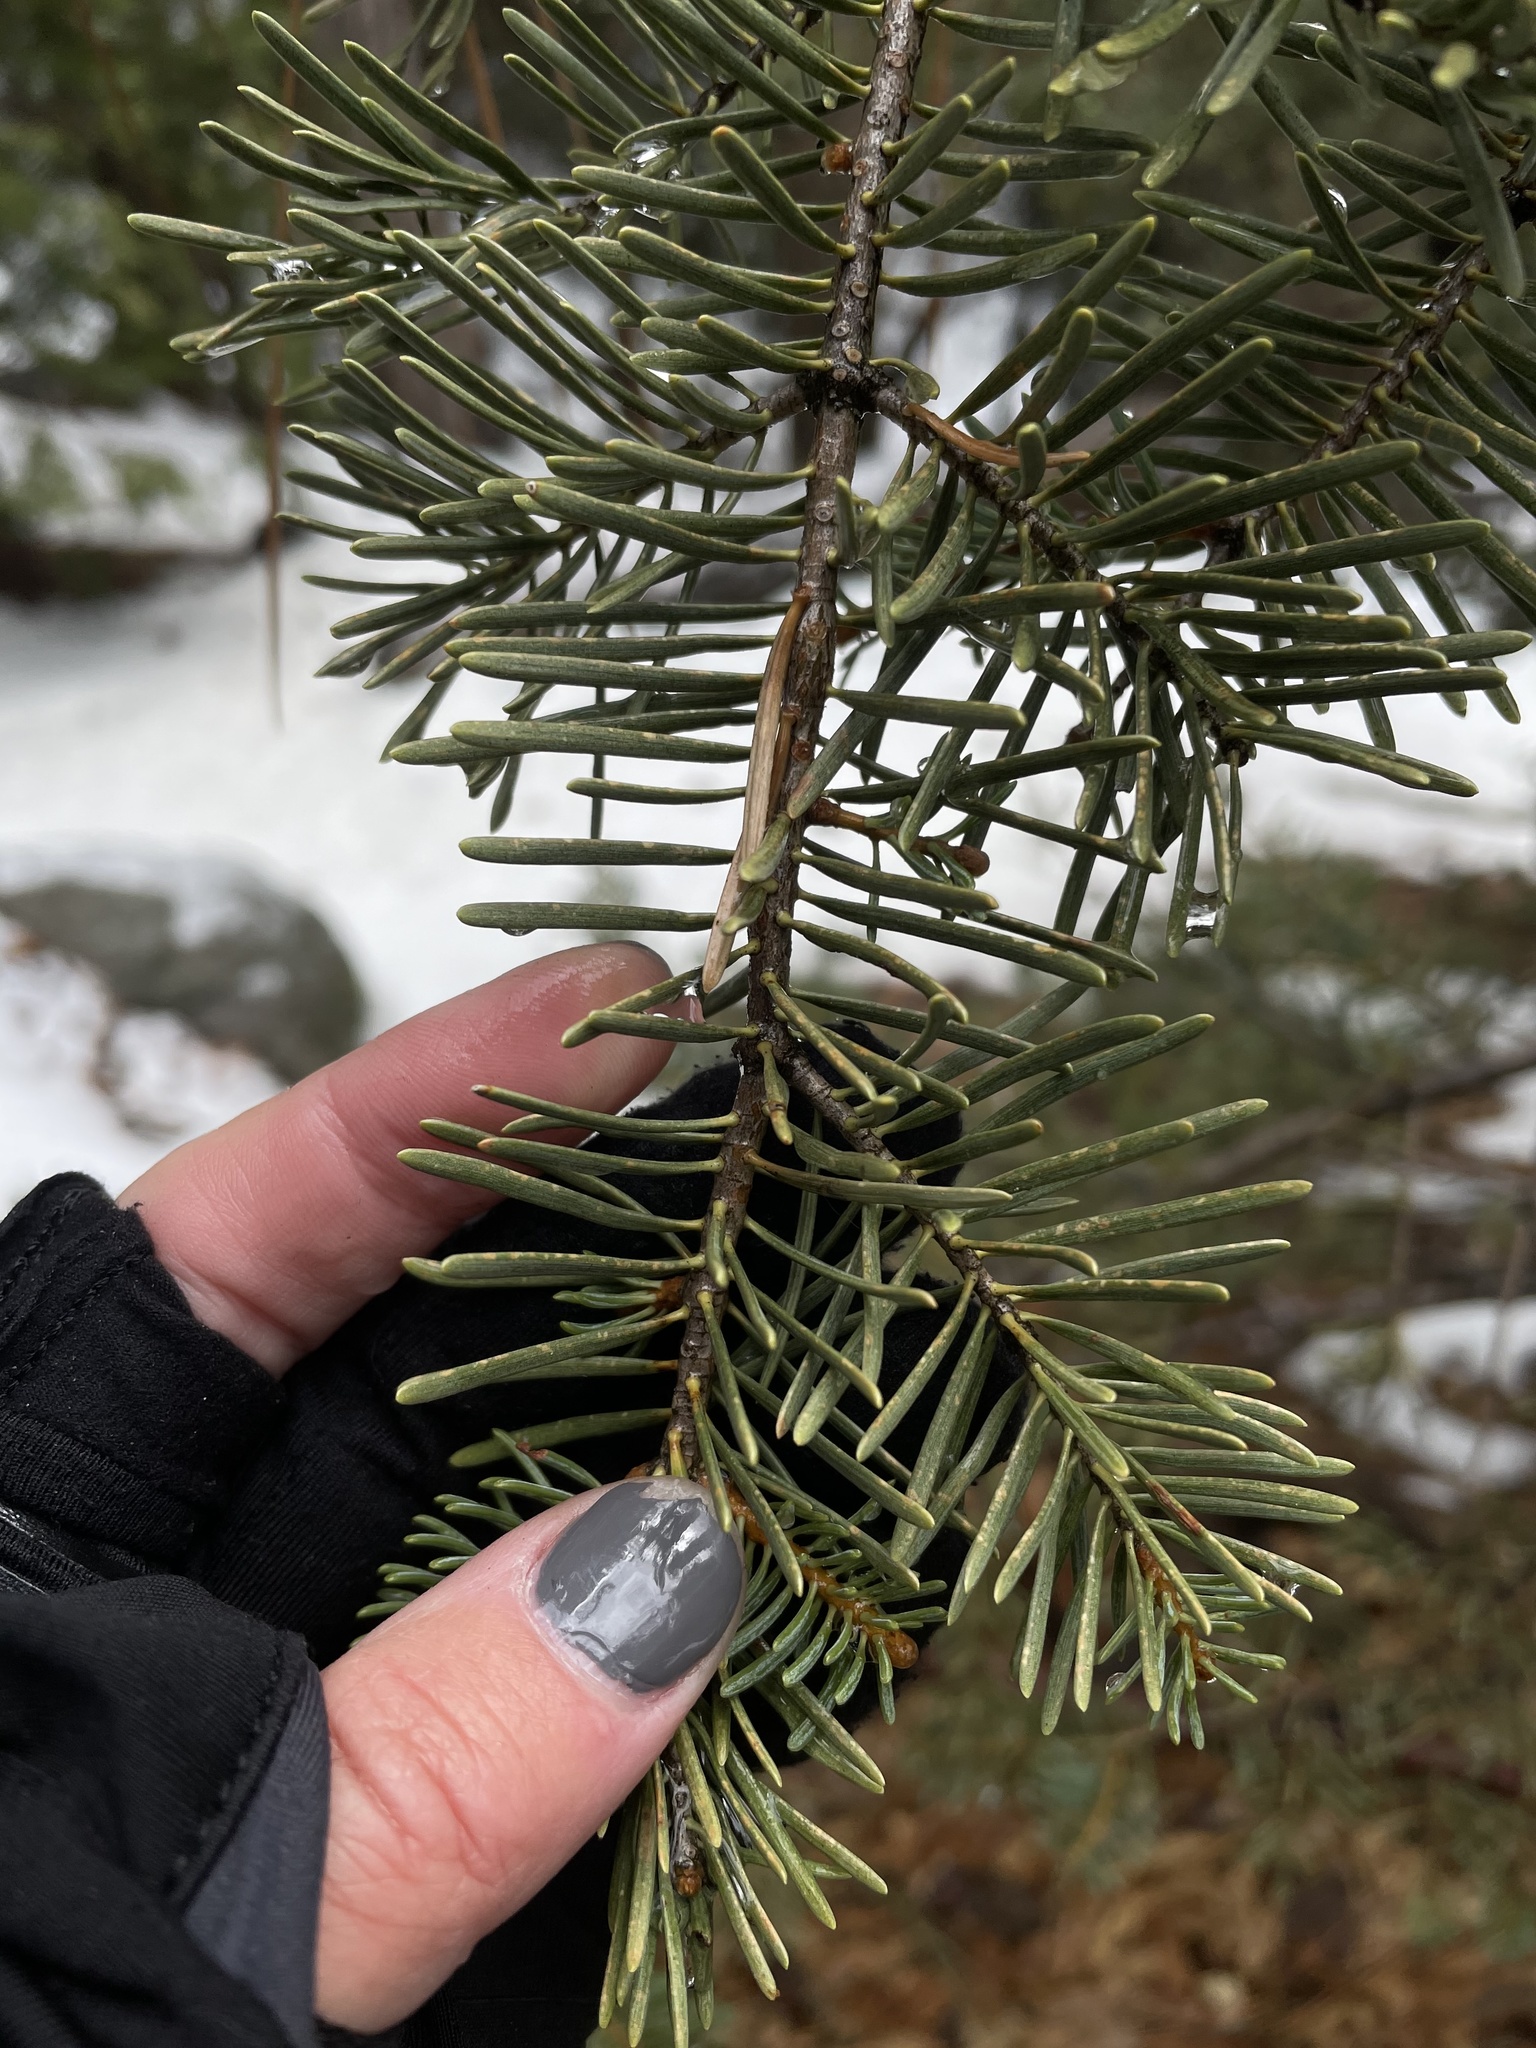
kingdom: Plantae
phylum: Tracheophyta
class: Pinopsida
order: Pinales
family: Pinaceae
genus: Abies
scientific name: Abies concolor
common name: Colorado fir
